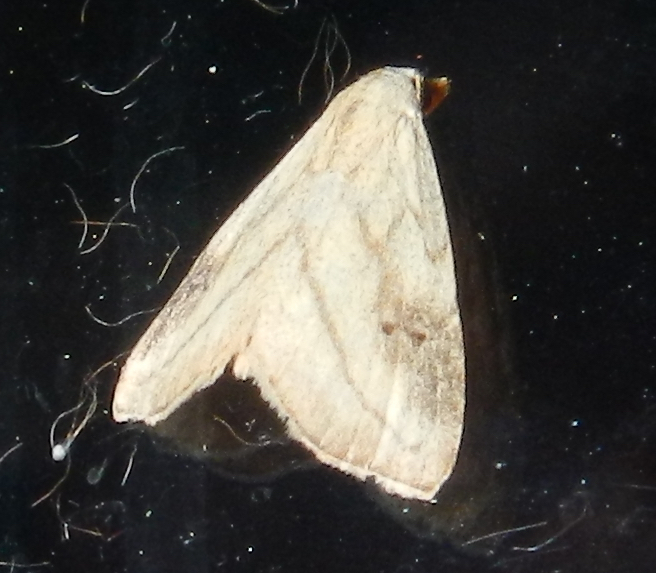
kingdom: Animalia
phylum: Arthropoda
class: Insecta
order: Lepidoptera
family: Erebidae
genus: Rivula
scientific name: Rivula propinqualis
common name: Spotted grass moth
